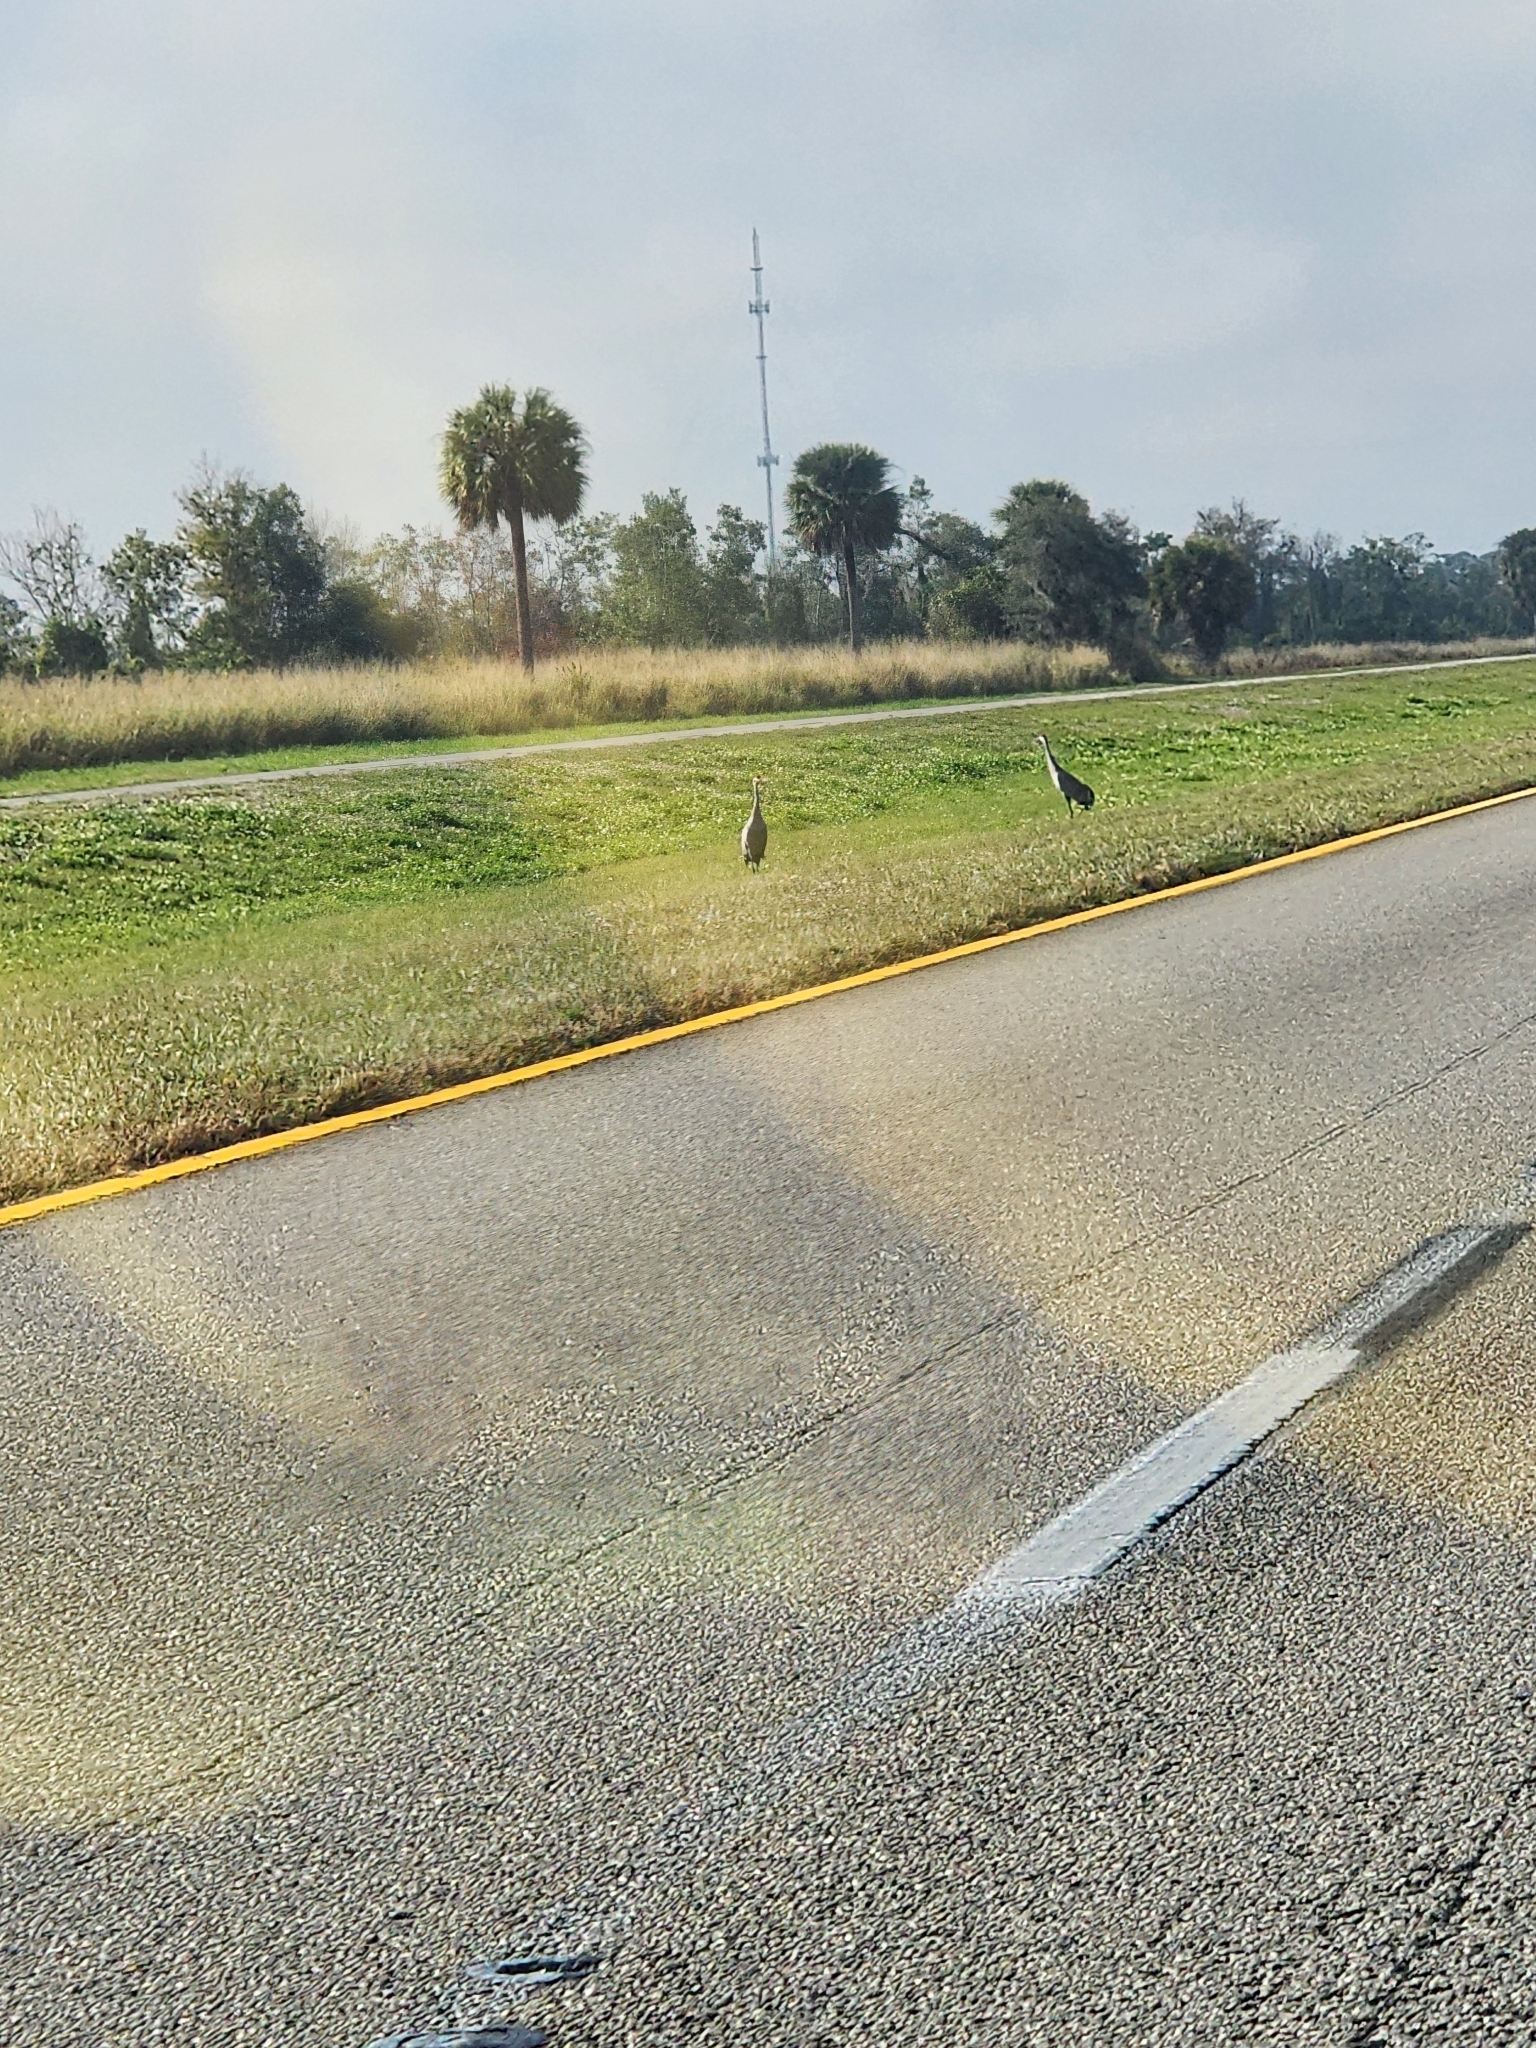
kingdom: Animalia
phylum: Chordata
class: Aves
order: Gruiformes
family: Gruidae
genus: Grus
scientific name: Grus canadensis
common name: Sandhill crane
